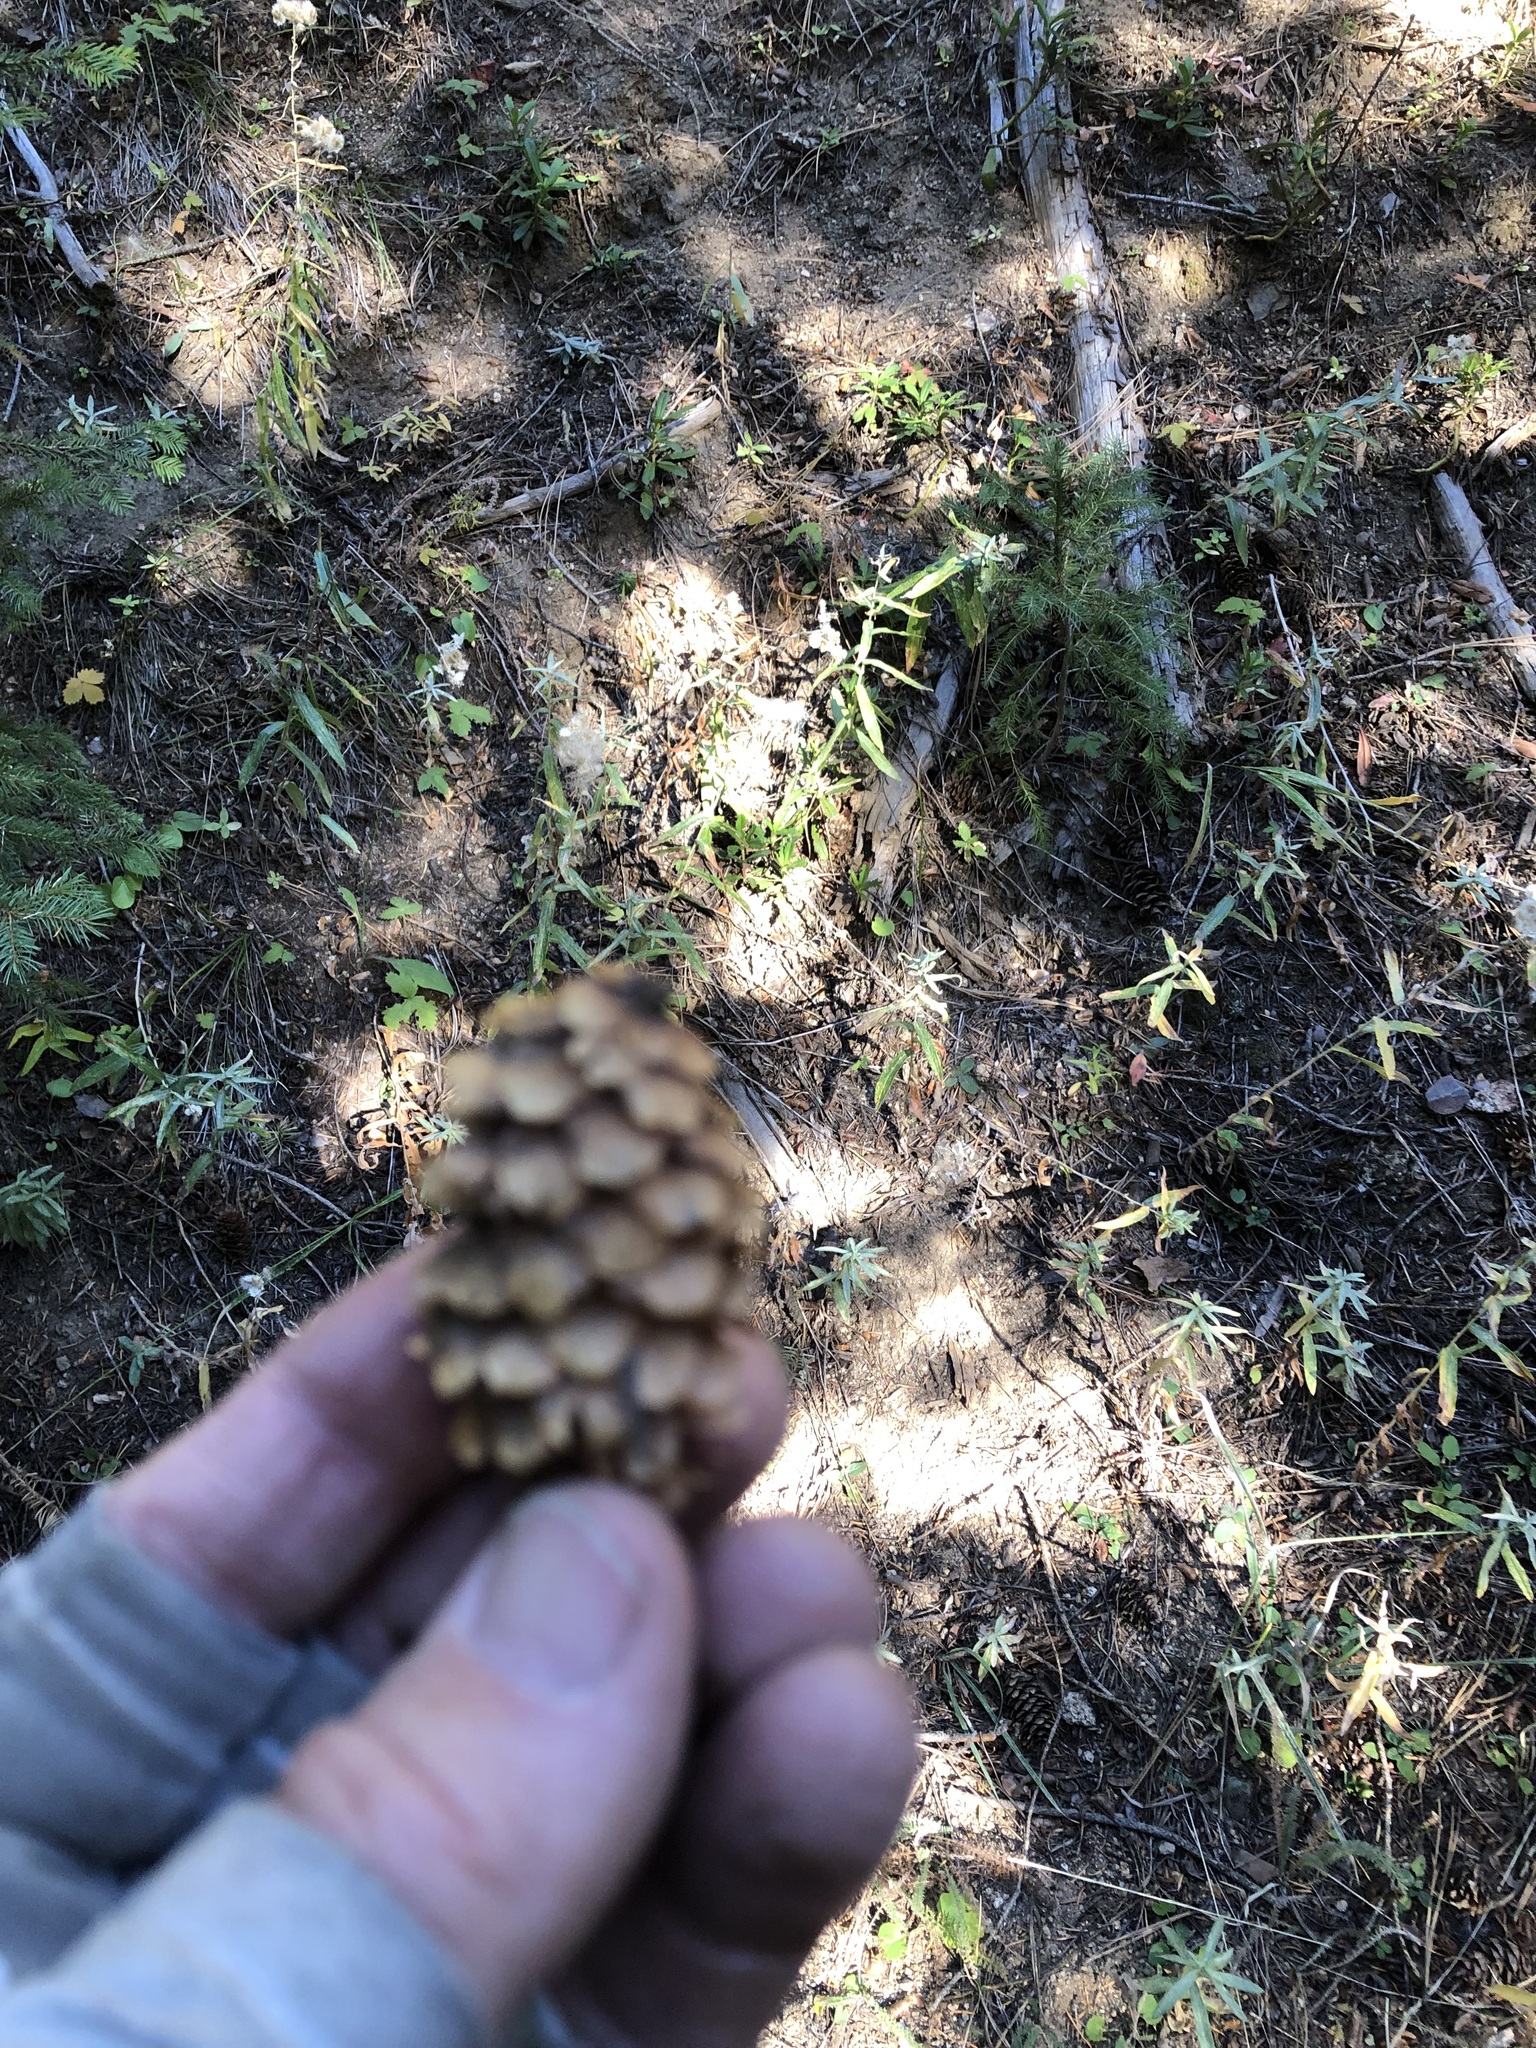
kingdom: Plantae
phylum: Tracheophyta
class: Pinopsida
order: Pinales
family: Pinaceae
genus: Picea
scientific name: Picea engelmannii
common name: Engelmann spruce
